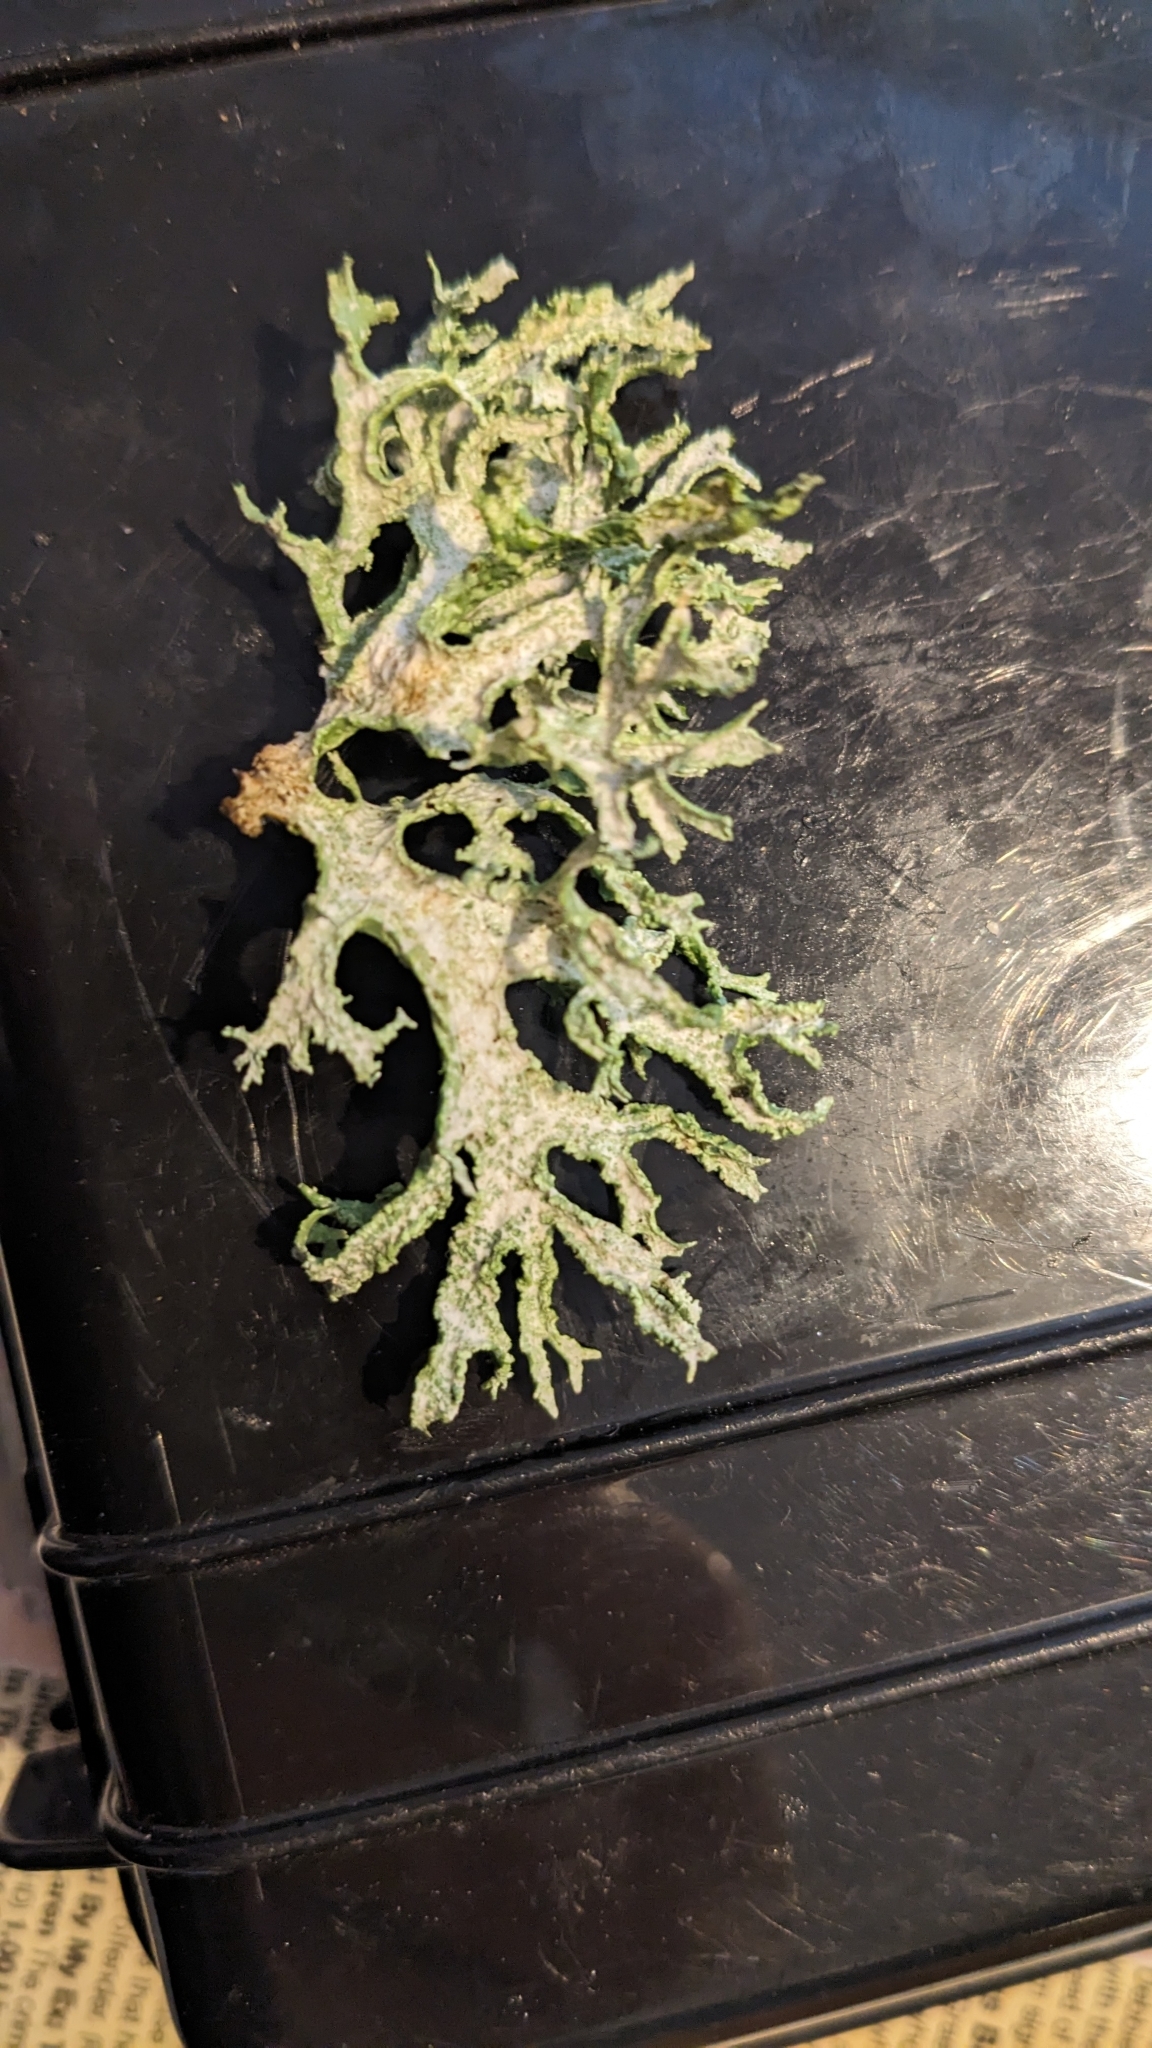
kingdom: Fungi
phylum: Ascomycota
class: Lecanoromycetes
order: Lecanorales
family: Parmeliaceae
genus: Evernia
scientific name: Evernia prunastri
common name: Oak moss
